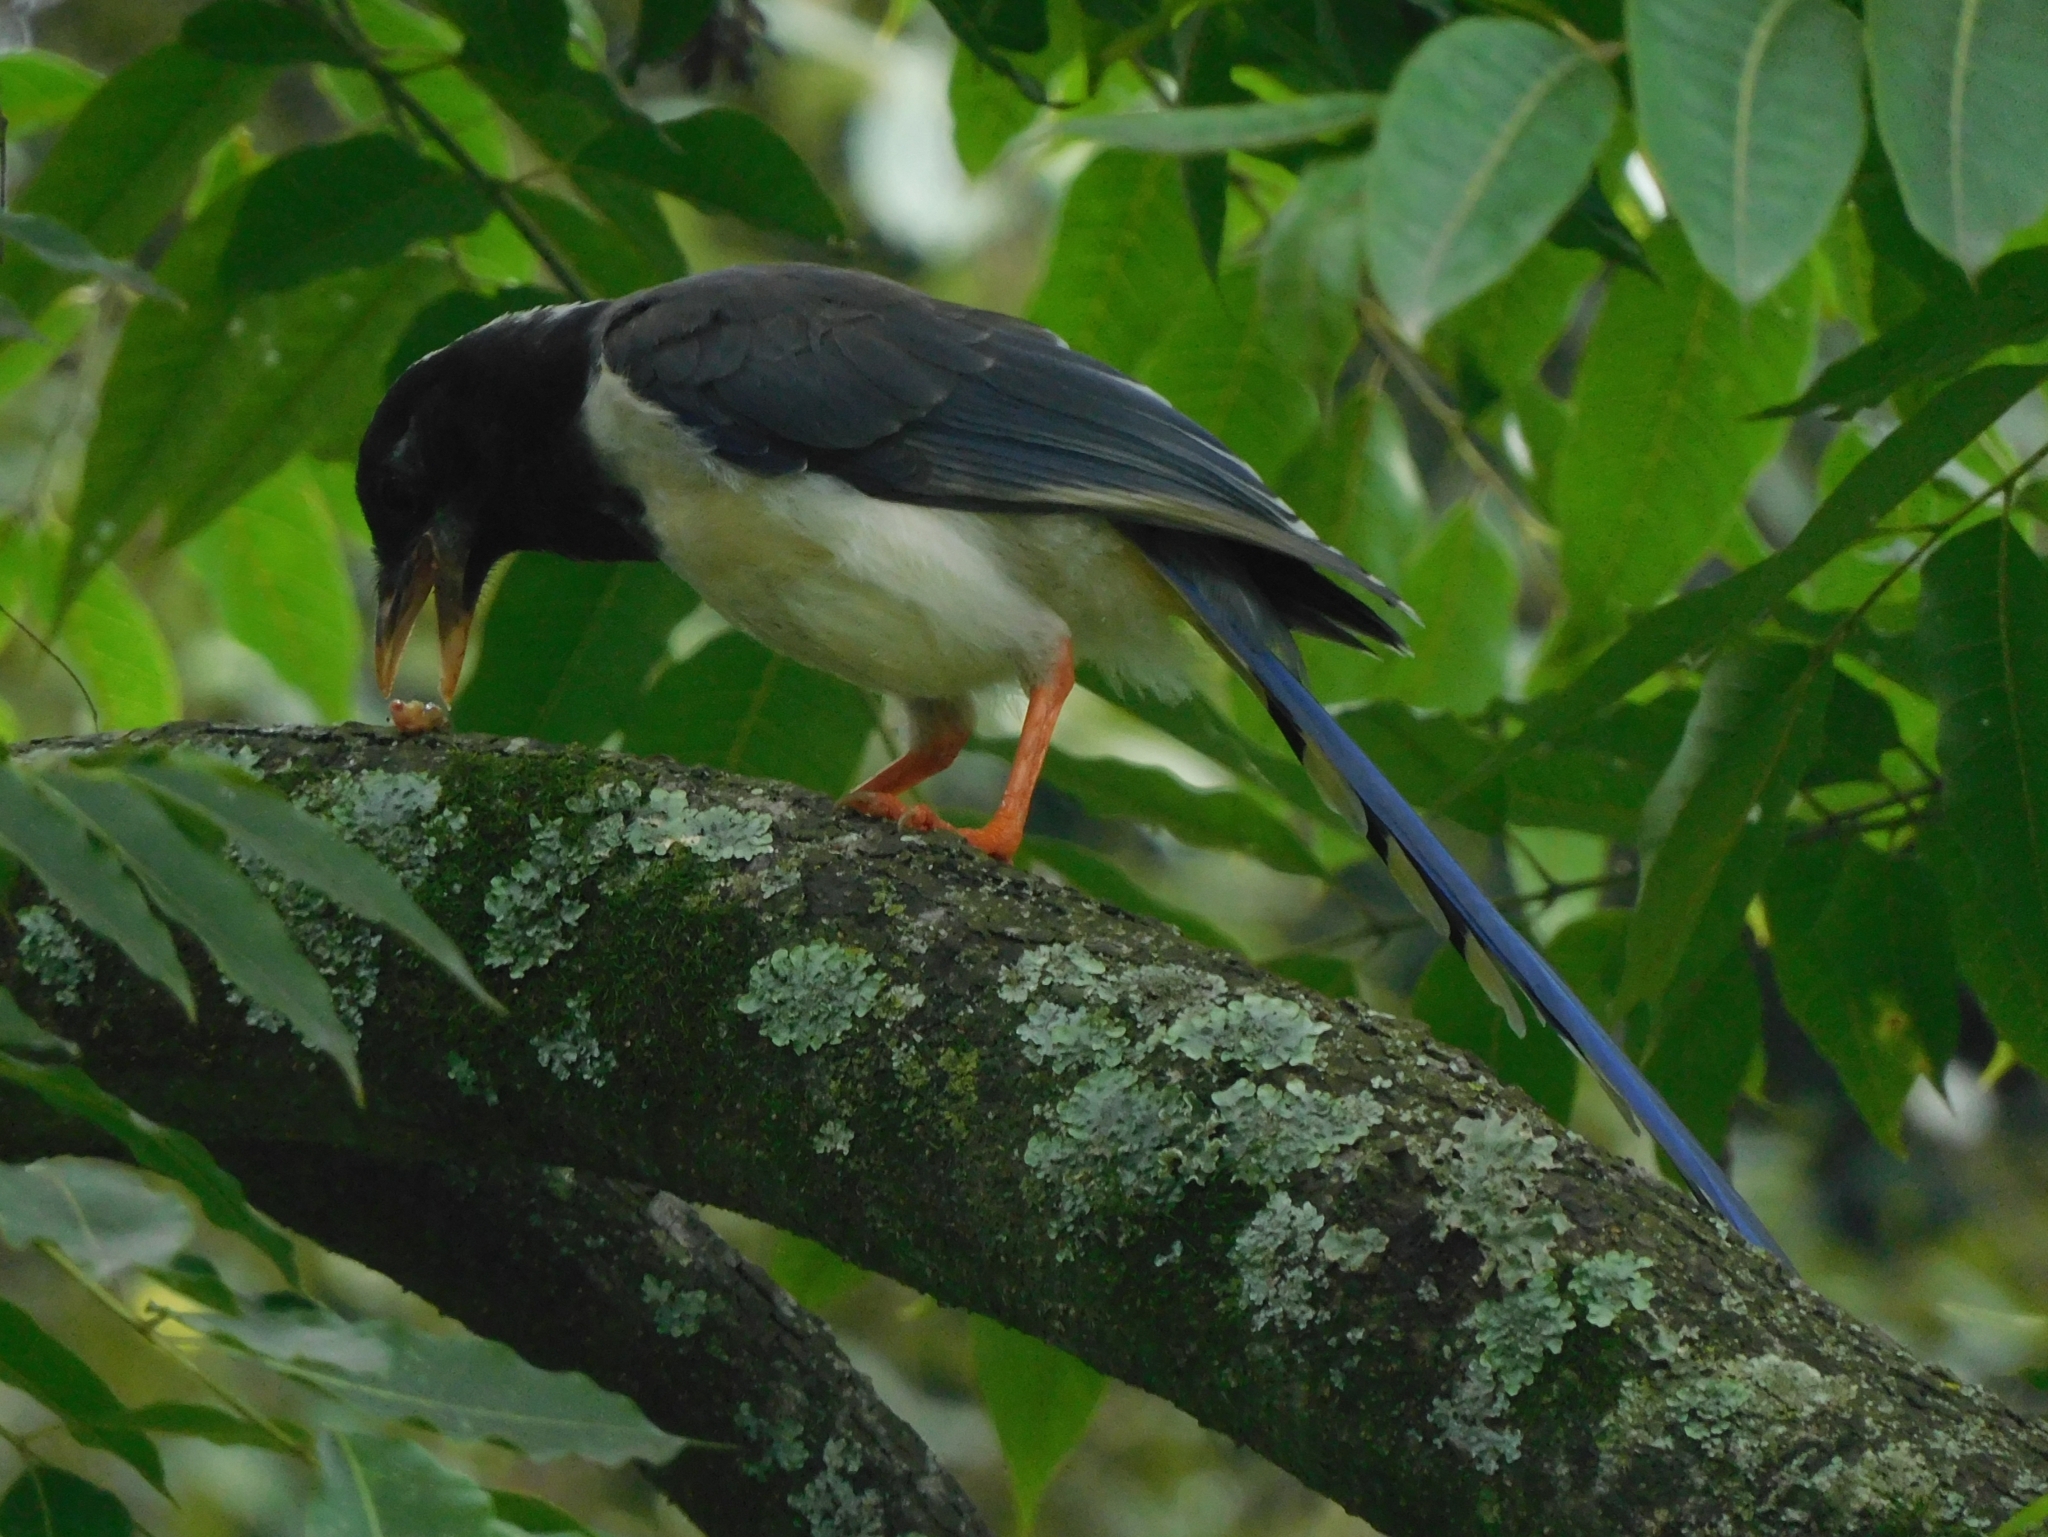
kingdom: Animalia
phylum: Chordata
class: Aves
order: Passeriformes
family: Corvidae
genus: Urocissa
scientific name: Urocissa erythroryncha
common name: Red-billed blue magpie
